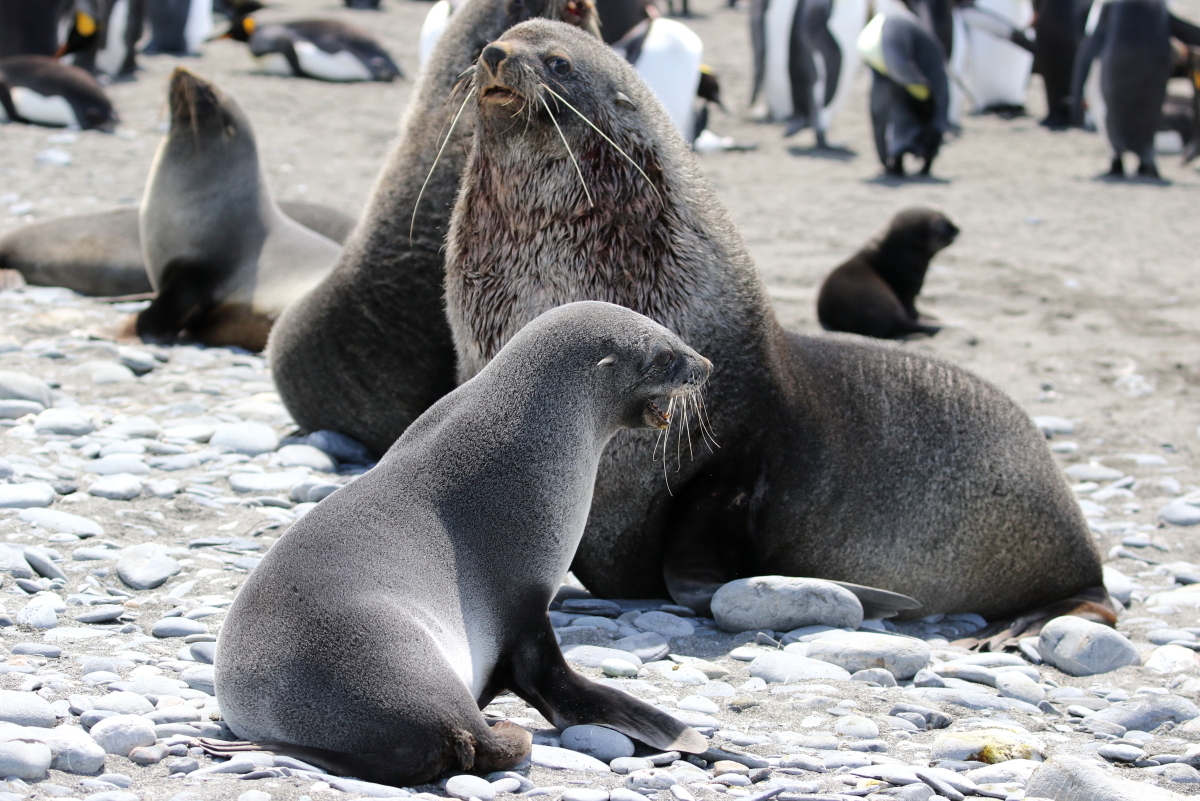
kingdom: Animalia
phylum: Chordata
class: Mammalia
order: Carnivora
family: Otariidae
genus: Arctocephalus
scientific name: Arctocephalus gazella
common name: Antarctic fur seal
